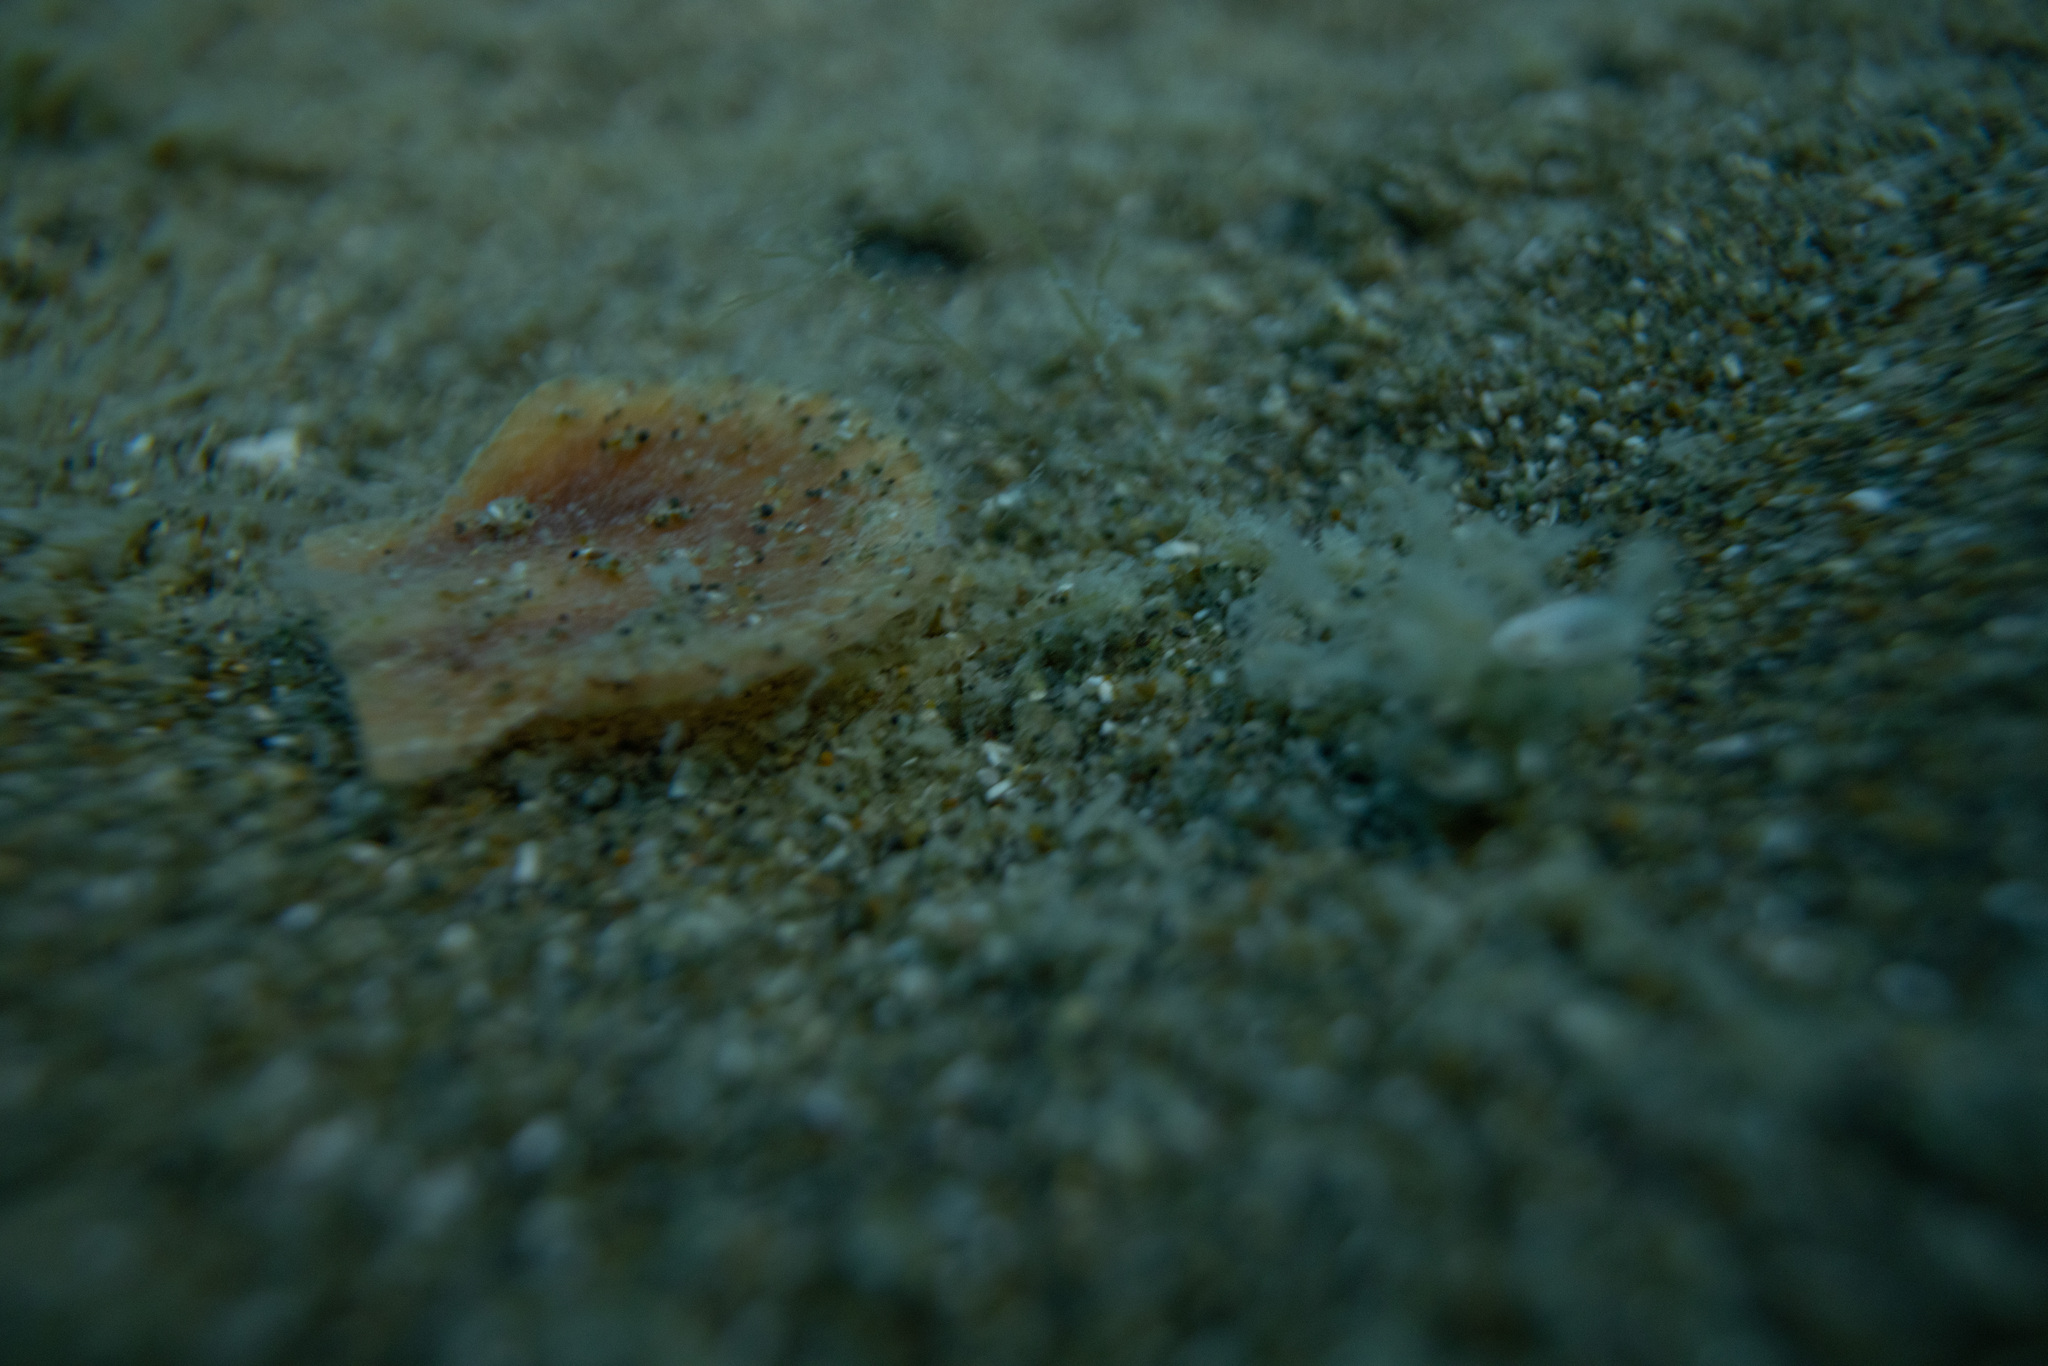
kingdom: Animalia
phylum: Mollusca
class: Bivalvia
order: Pectinida
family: Pectinidae
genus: Pecten
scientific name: Pecten novaezelandiae
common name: New zealand scallop
